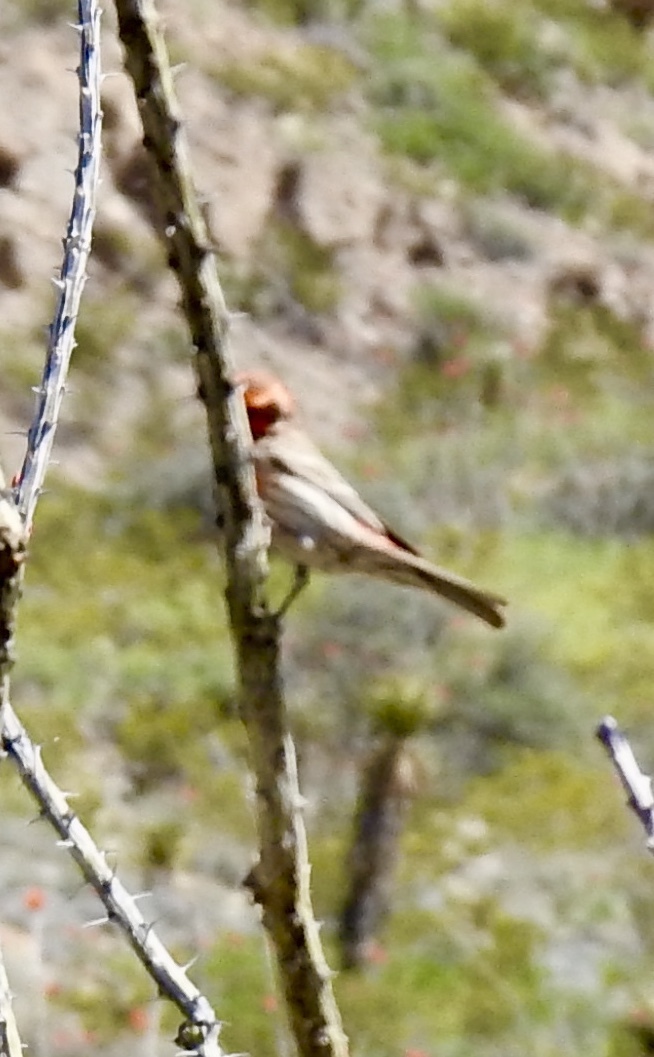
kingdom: Animalia
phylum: Chordata
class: Aves
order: Passeriformes
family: Fringillidae
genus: Haemorhous
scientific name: Haemorhous mexicanus
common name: House finch
